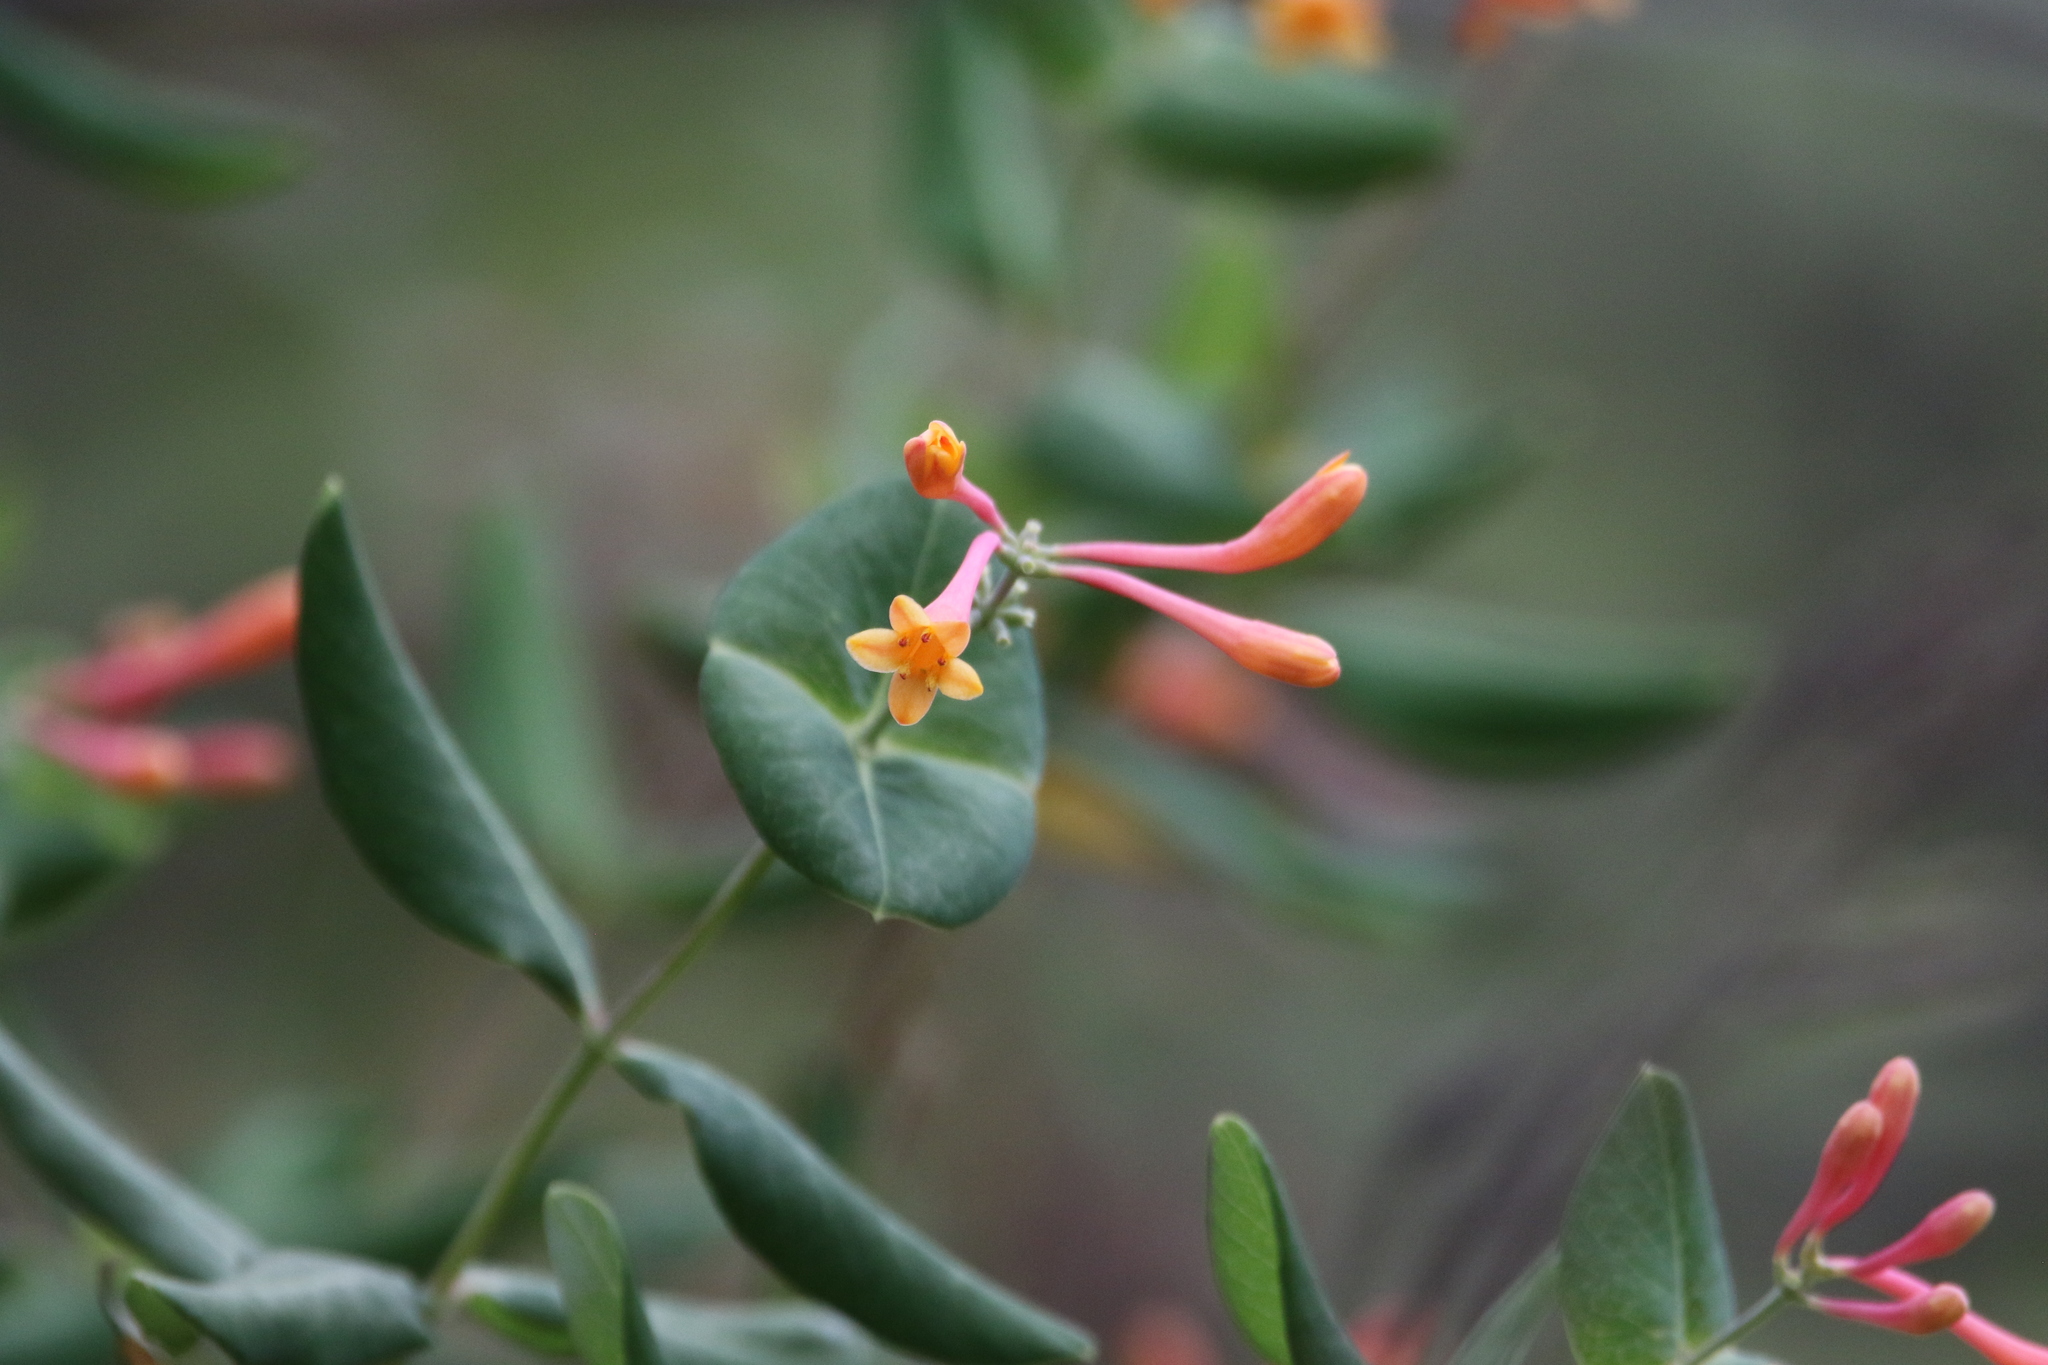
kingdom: Plantae
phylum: Tracheophyta
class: Magnoliopsida
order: Dipsacales
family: Caprifoliaceae
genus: Lonicera
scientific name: Lonicera arizonica
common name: Arizona honeysuckle
